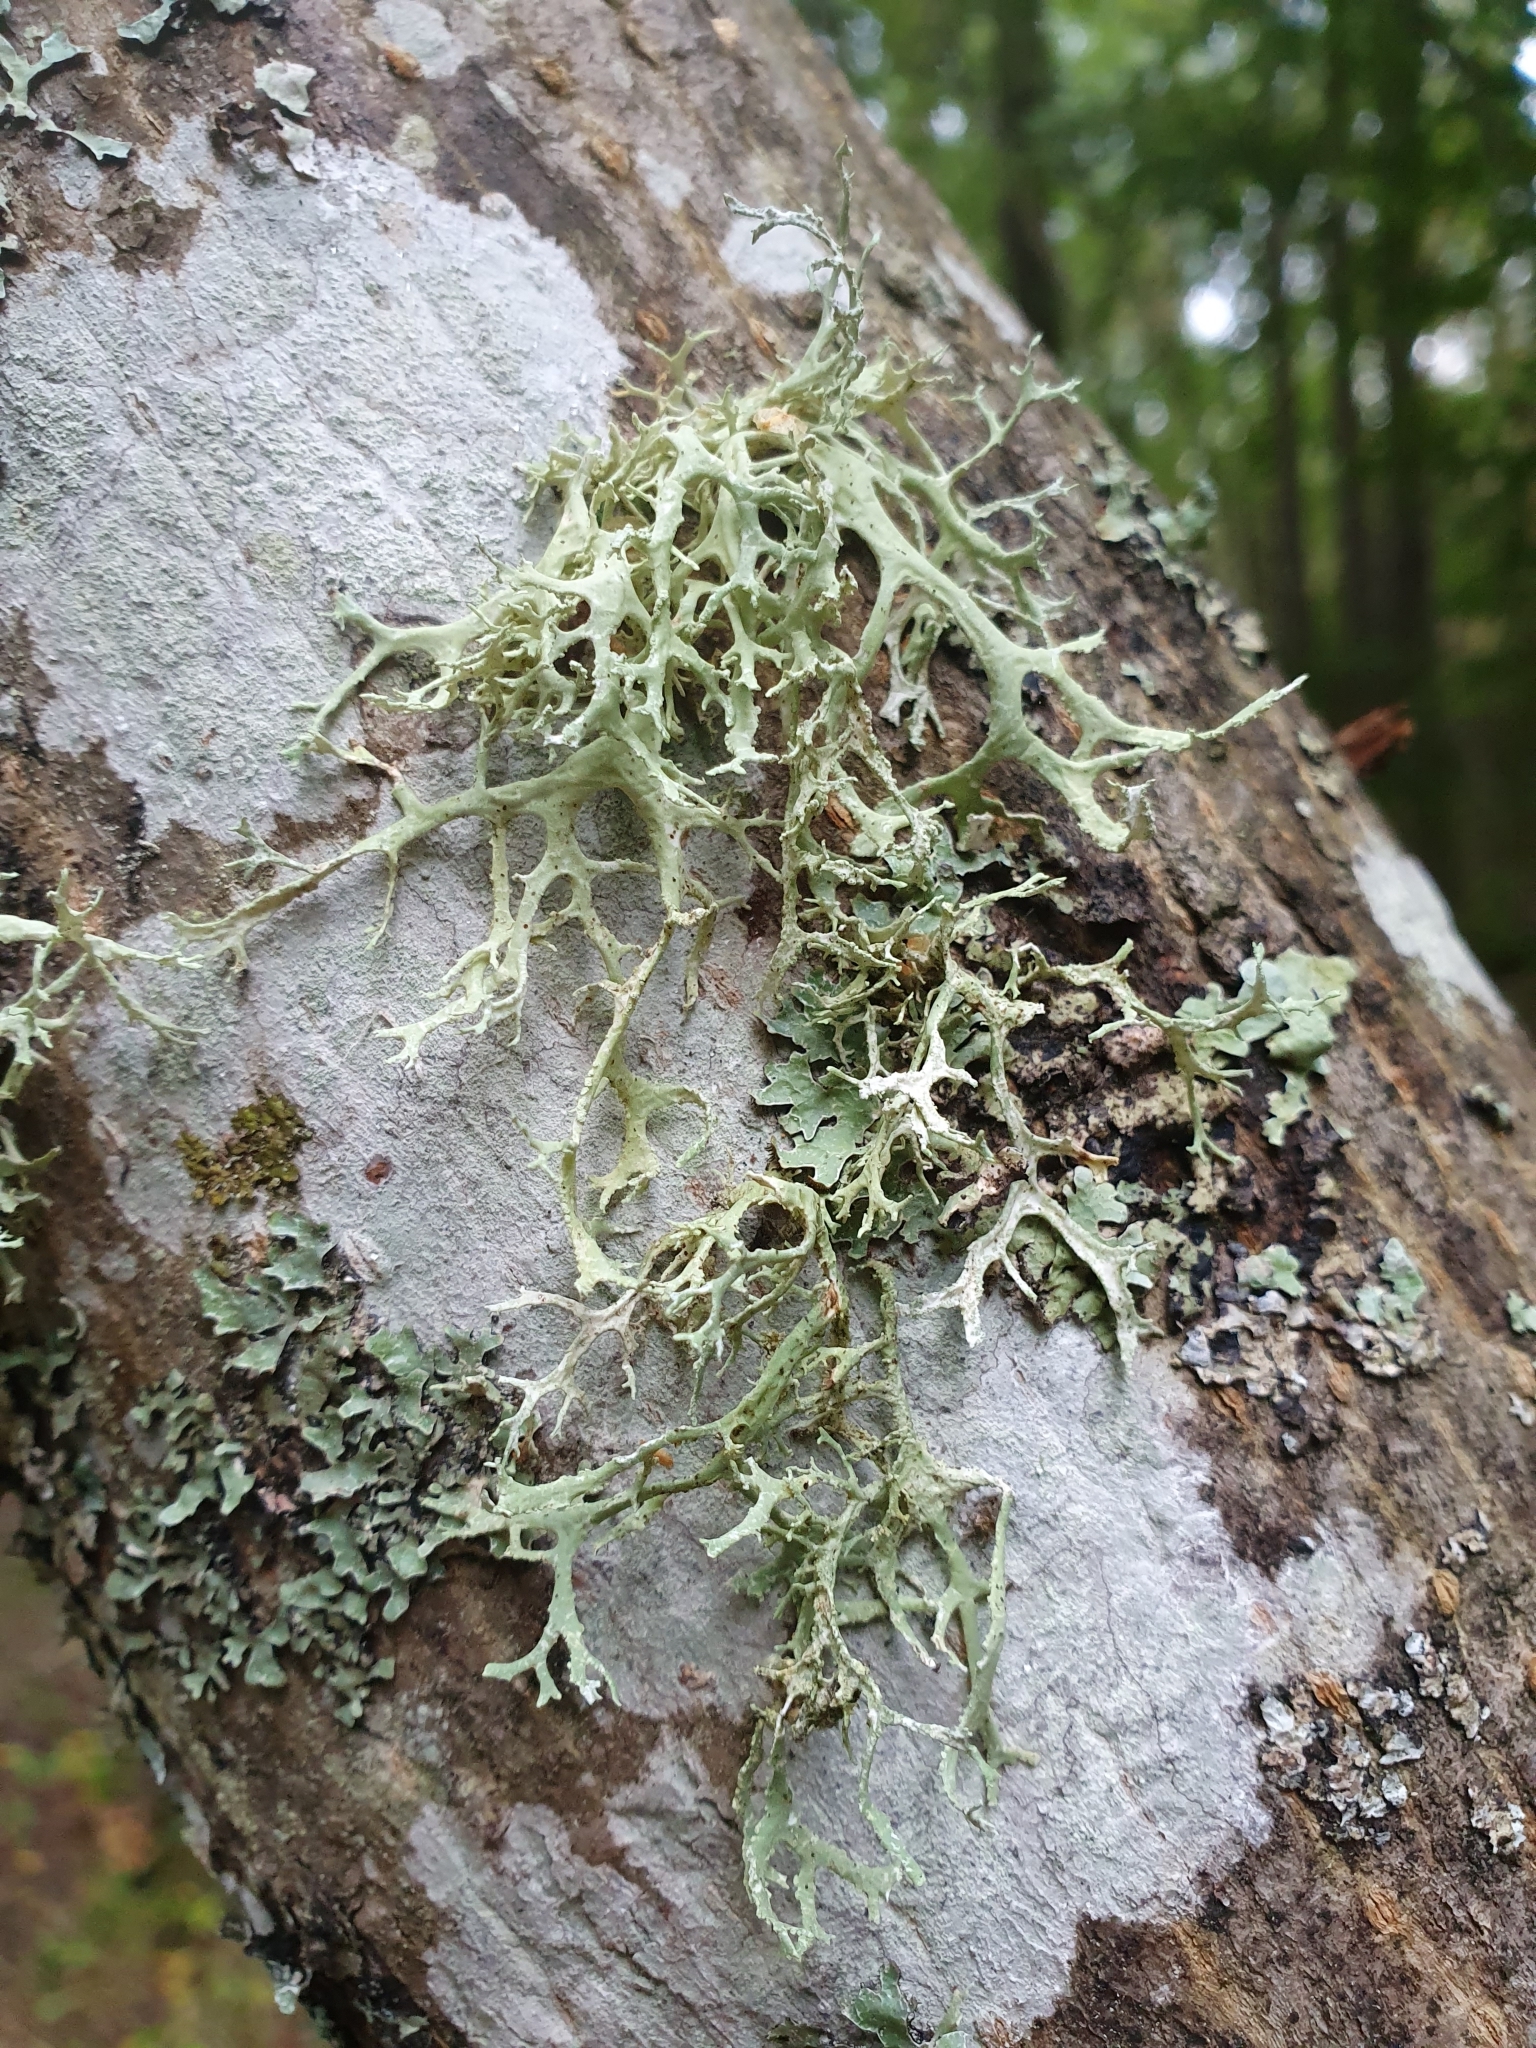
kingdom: Fungi
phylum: Ascomycota
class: Lecanoromycetes
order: Lecanorales
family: Parmeliaceae
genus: Evernia
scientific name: Evernia prunastri
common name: Oak moss
